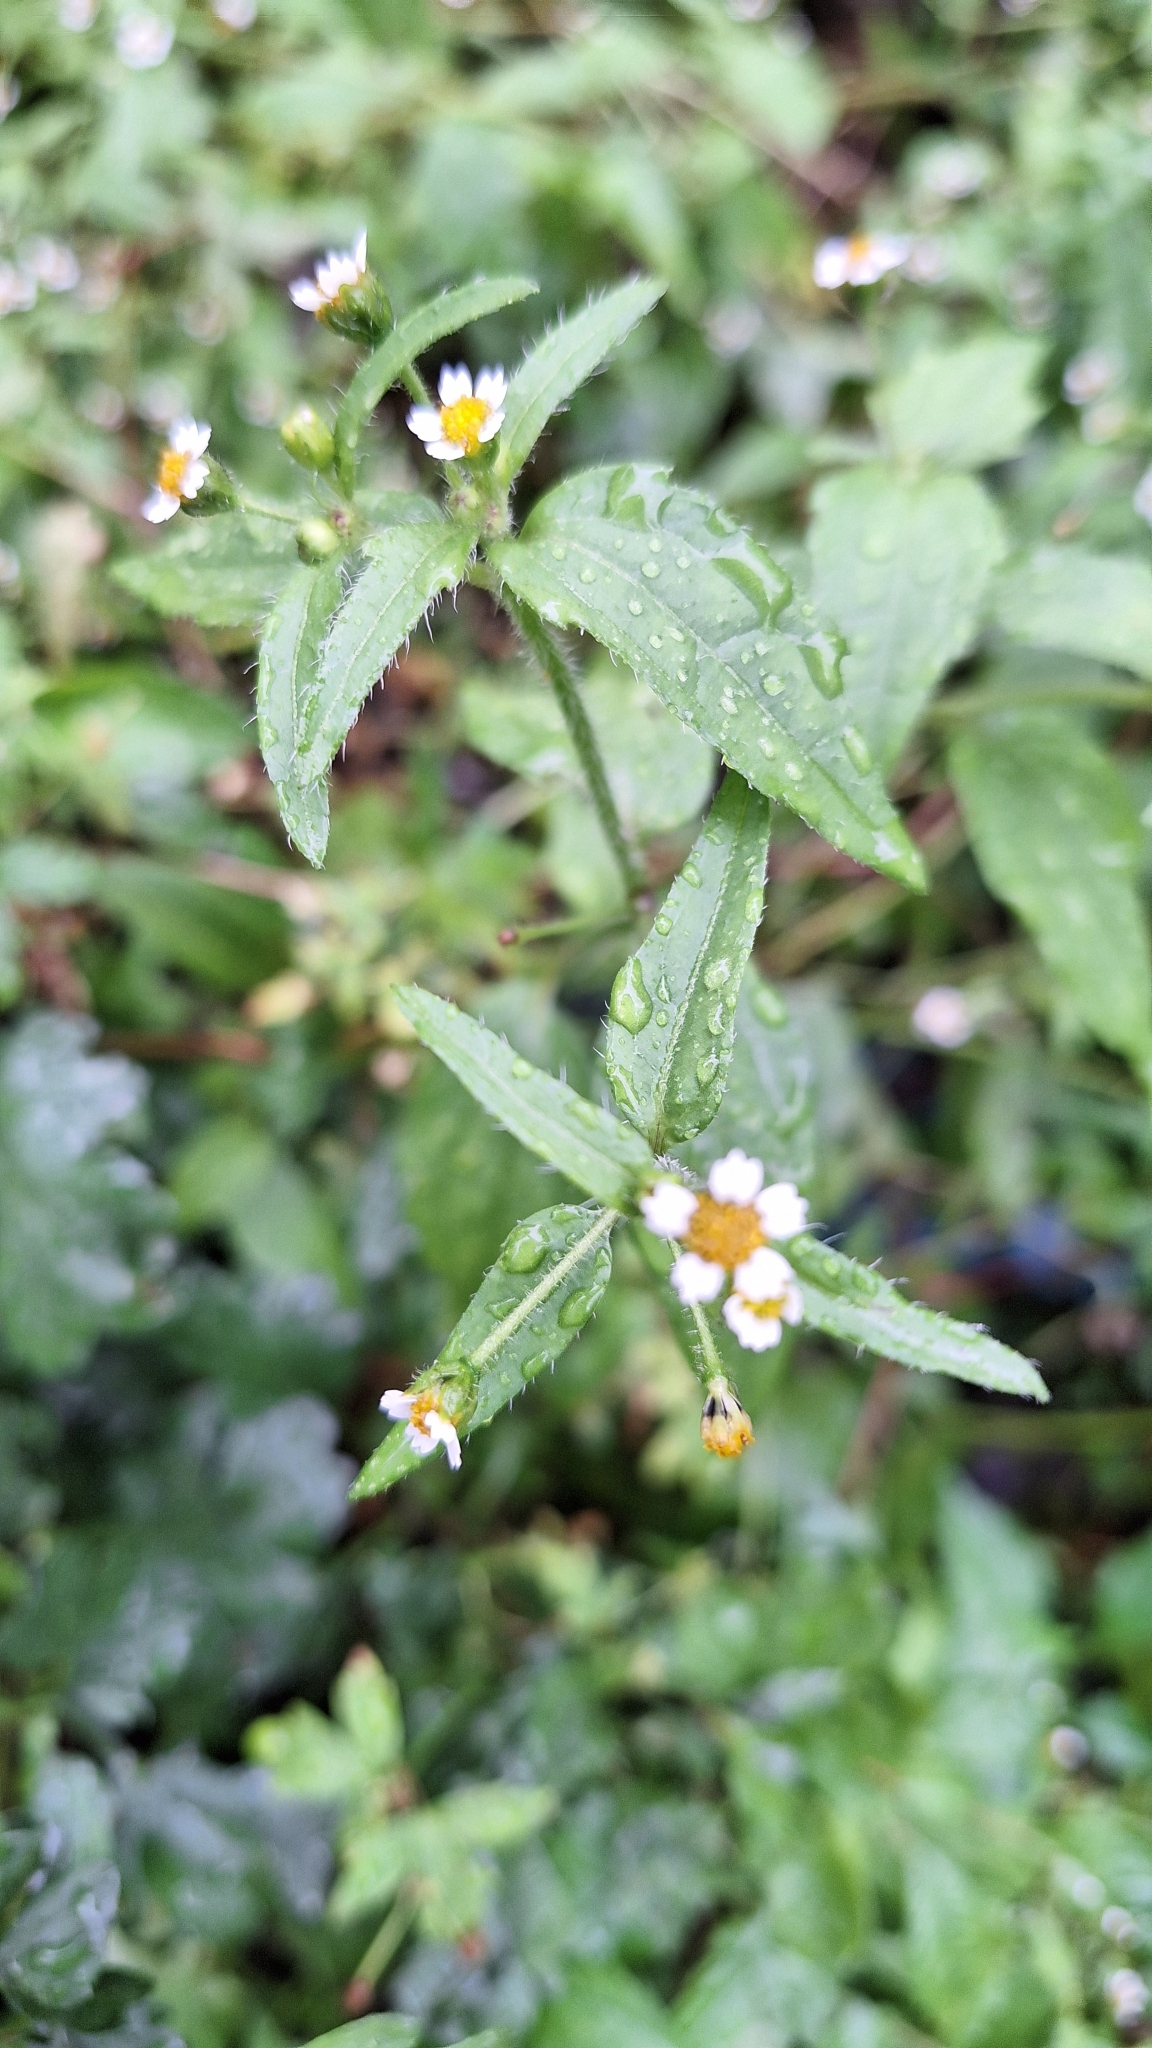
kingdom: Plantae
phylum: Tracheophyta
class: Magnoliopsida
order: Asterales
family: Asteraceae
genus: Galinsoga
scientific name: Galinsoga quadriradiata
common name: Shaggy soldier
